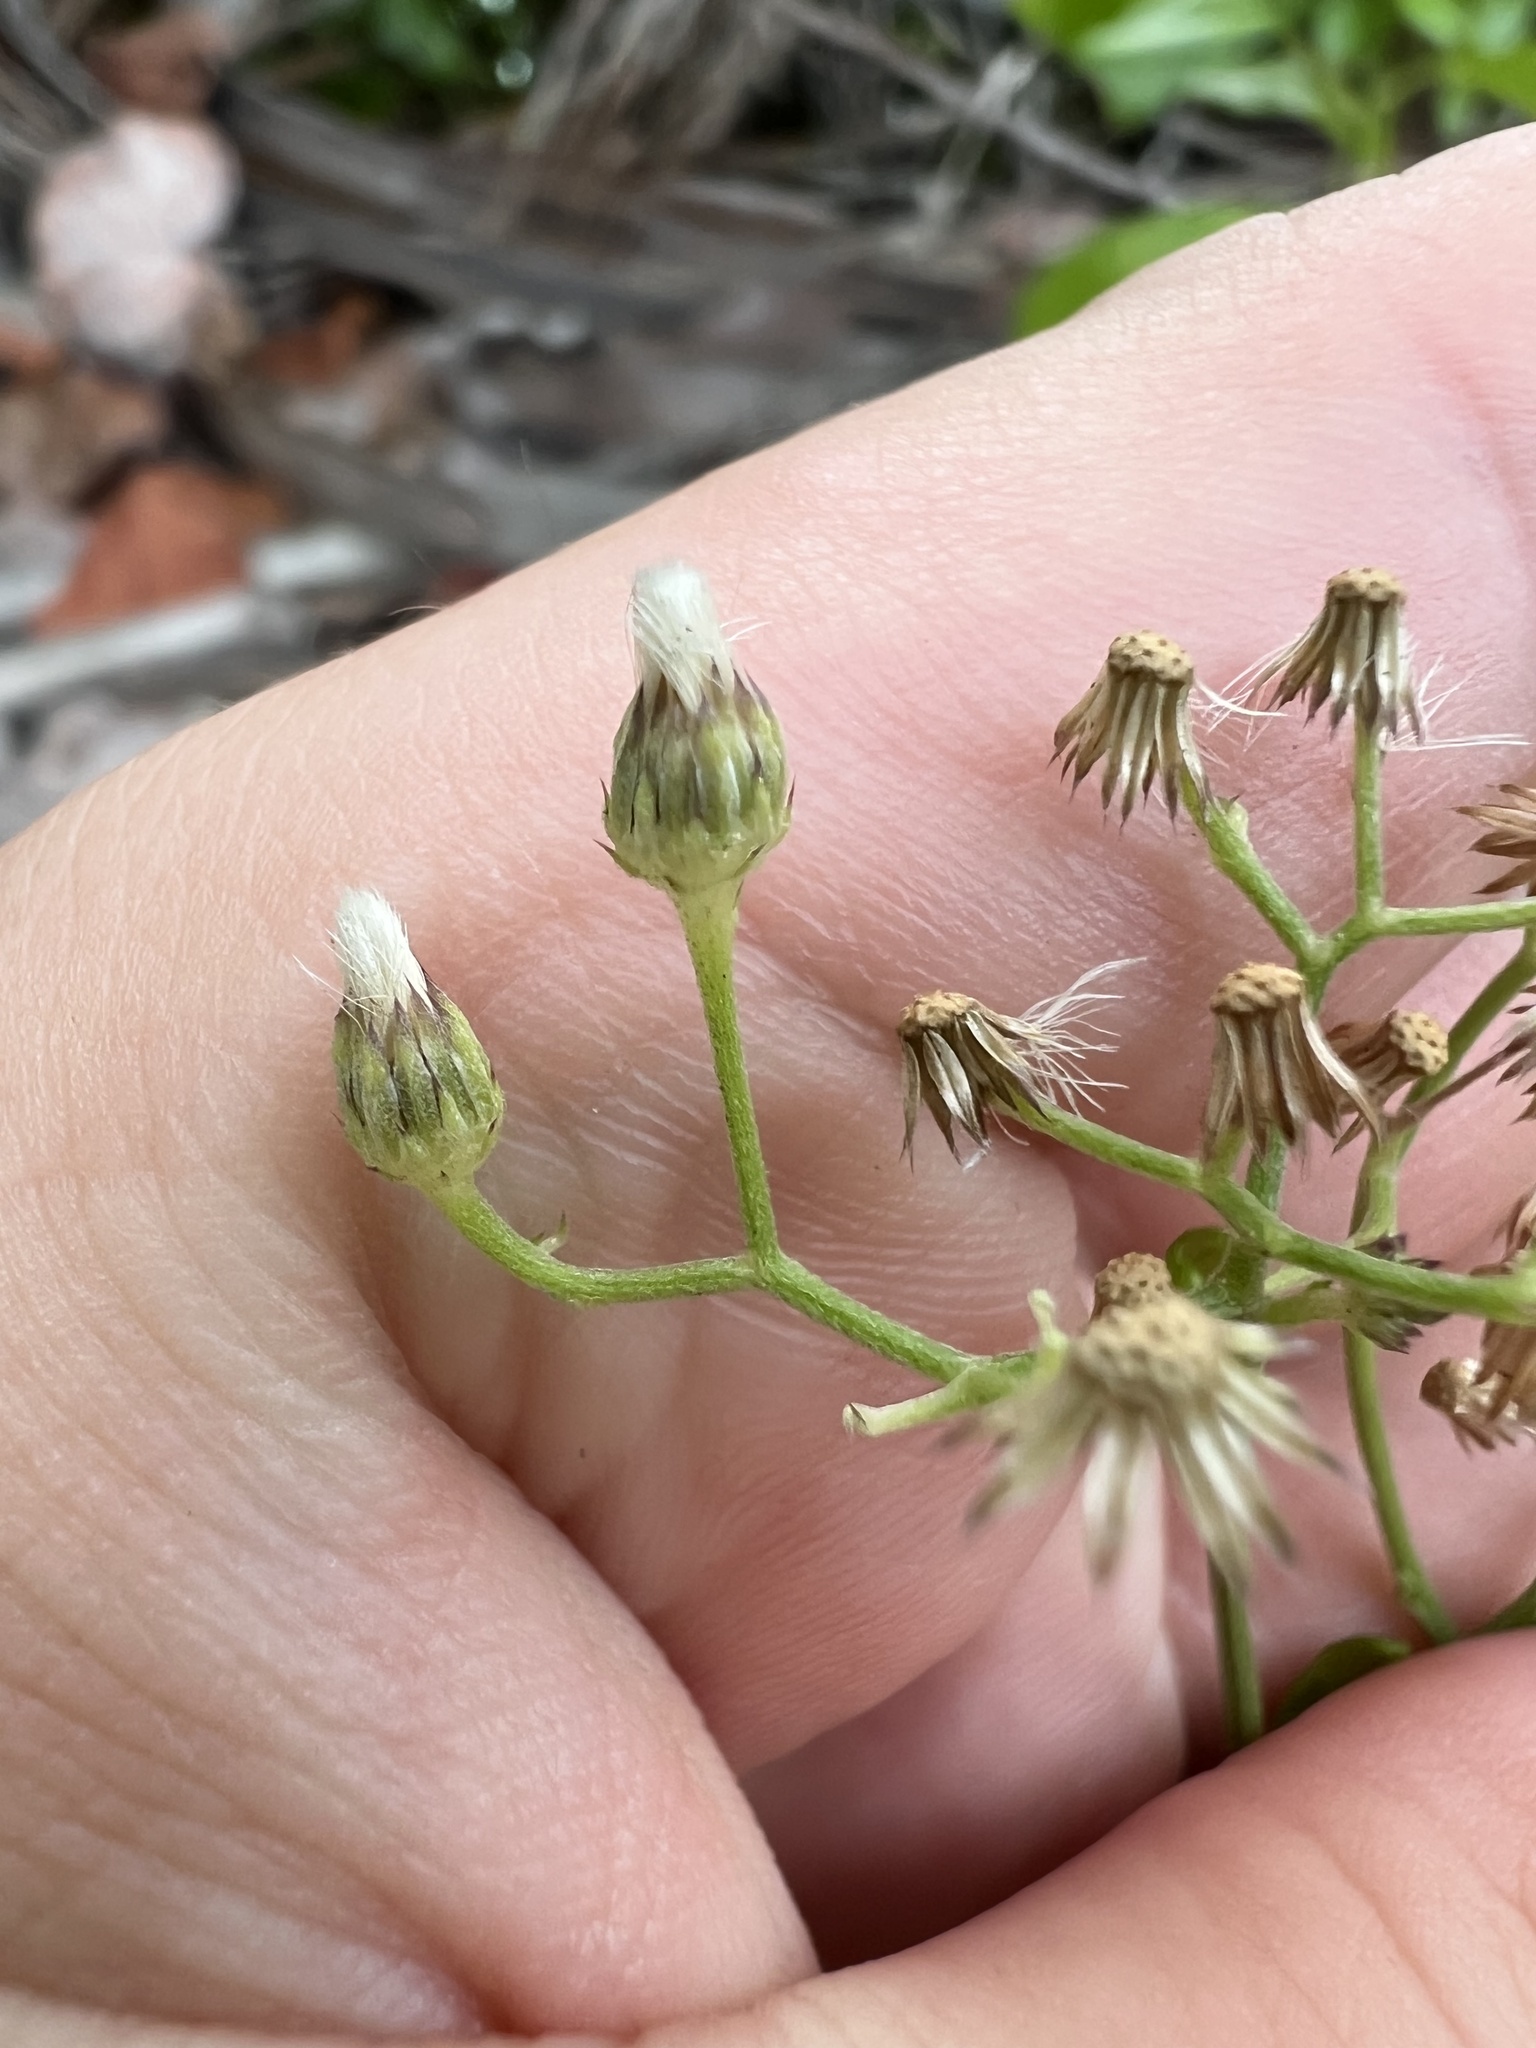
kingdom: Plantae
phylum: Tracheophyta
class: Magnoliopsida
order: Asterales
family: Asteraceae
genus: Cyanthillium
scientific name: Cyanthillium cinereum
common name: Little ironweed
